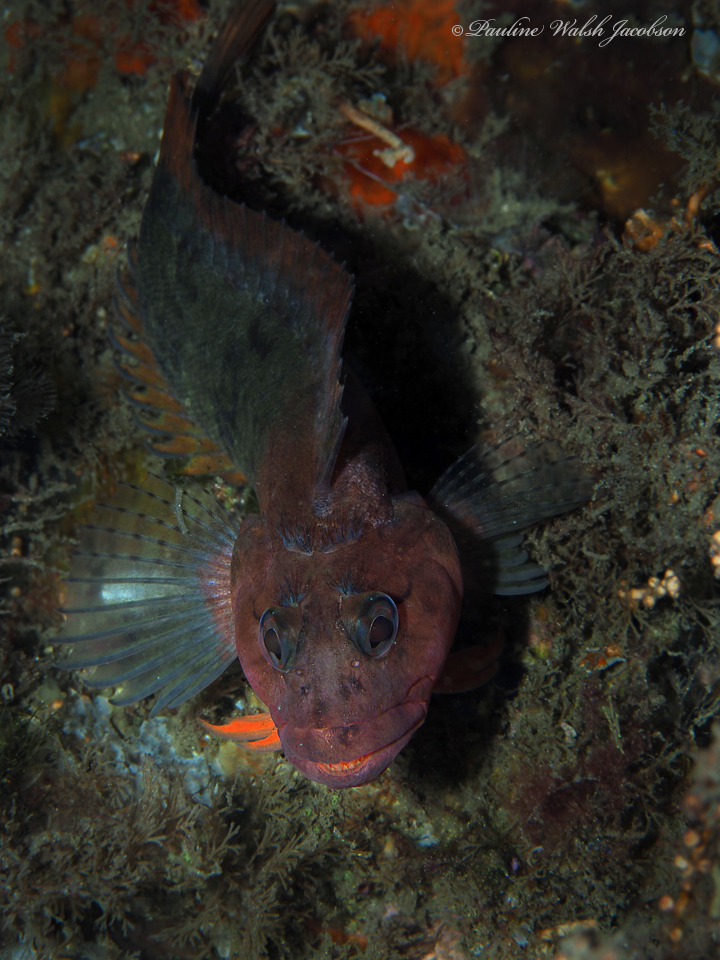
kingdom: Animalia
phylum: Chordata
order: Perciformes
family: Labrisomidae
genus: Labrisomus
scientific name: Labrisomus conditus
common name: Masquerader hairy blenny
